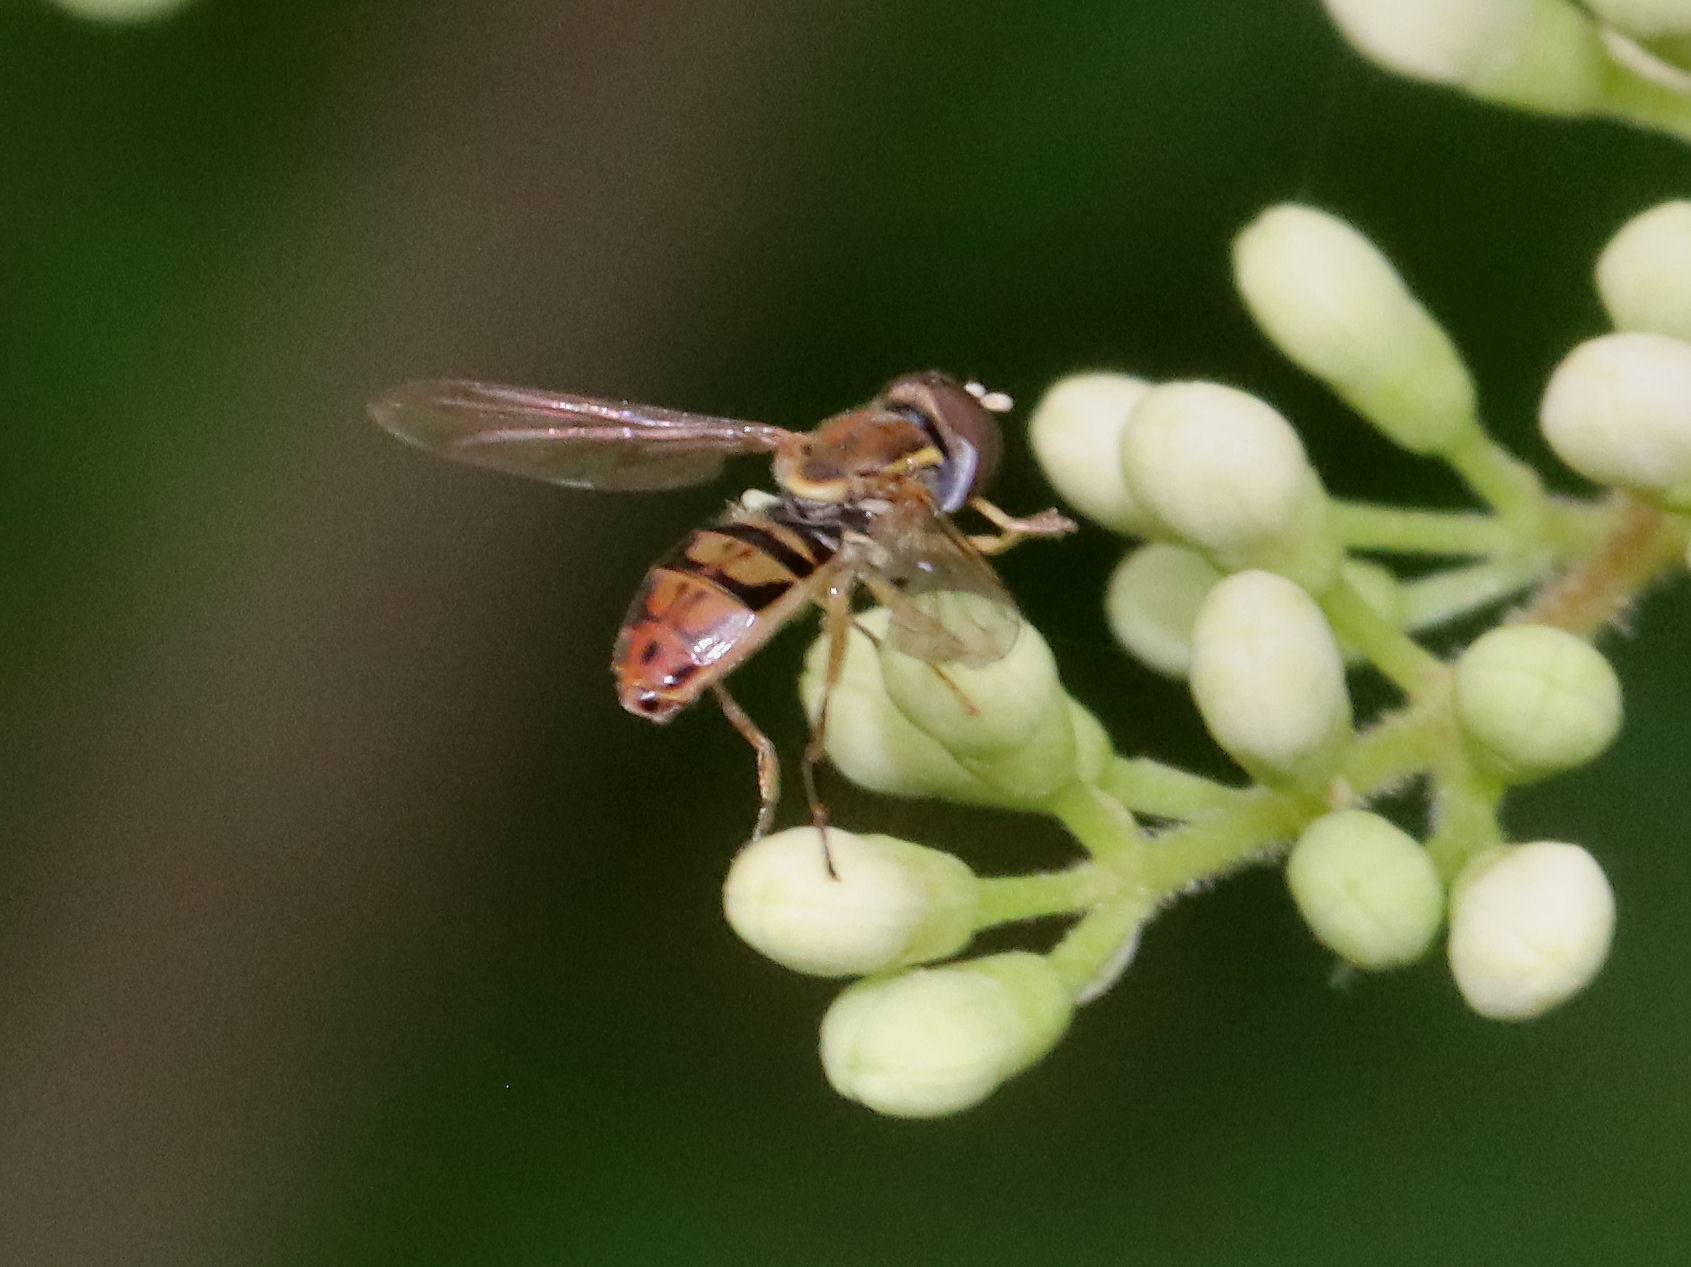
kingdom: Animalia
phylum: Arthropoda
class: Insecta
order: Diptera
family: Syrphidae
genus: Toxomerus
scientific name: Toxomerus marginatus
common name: Syrphid fly
